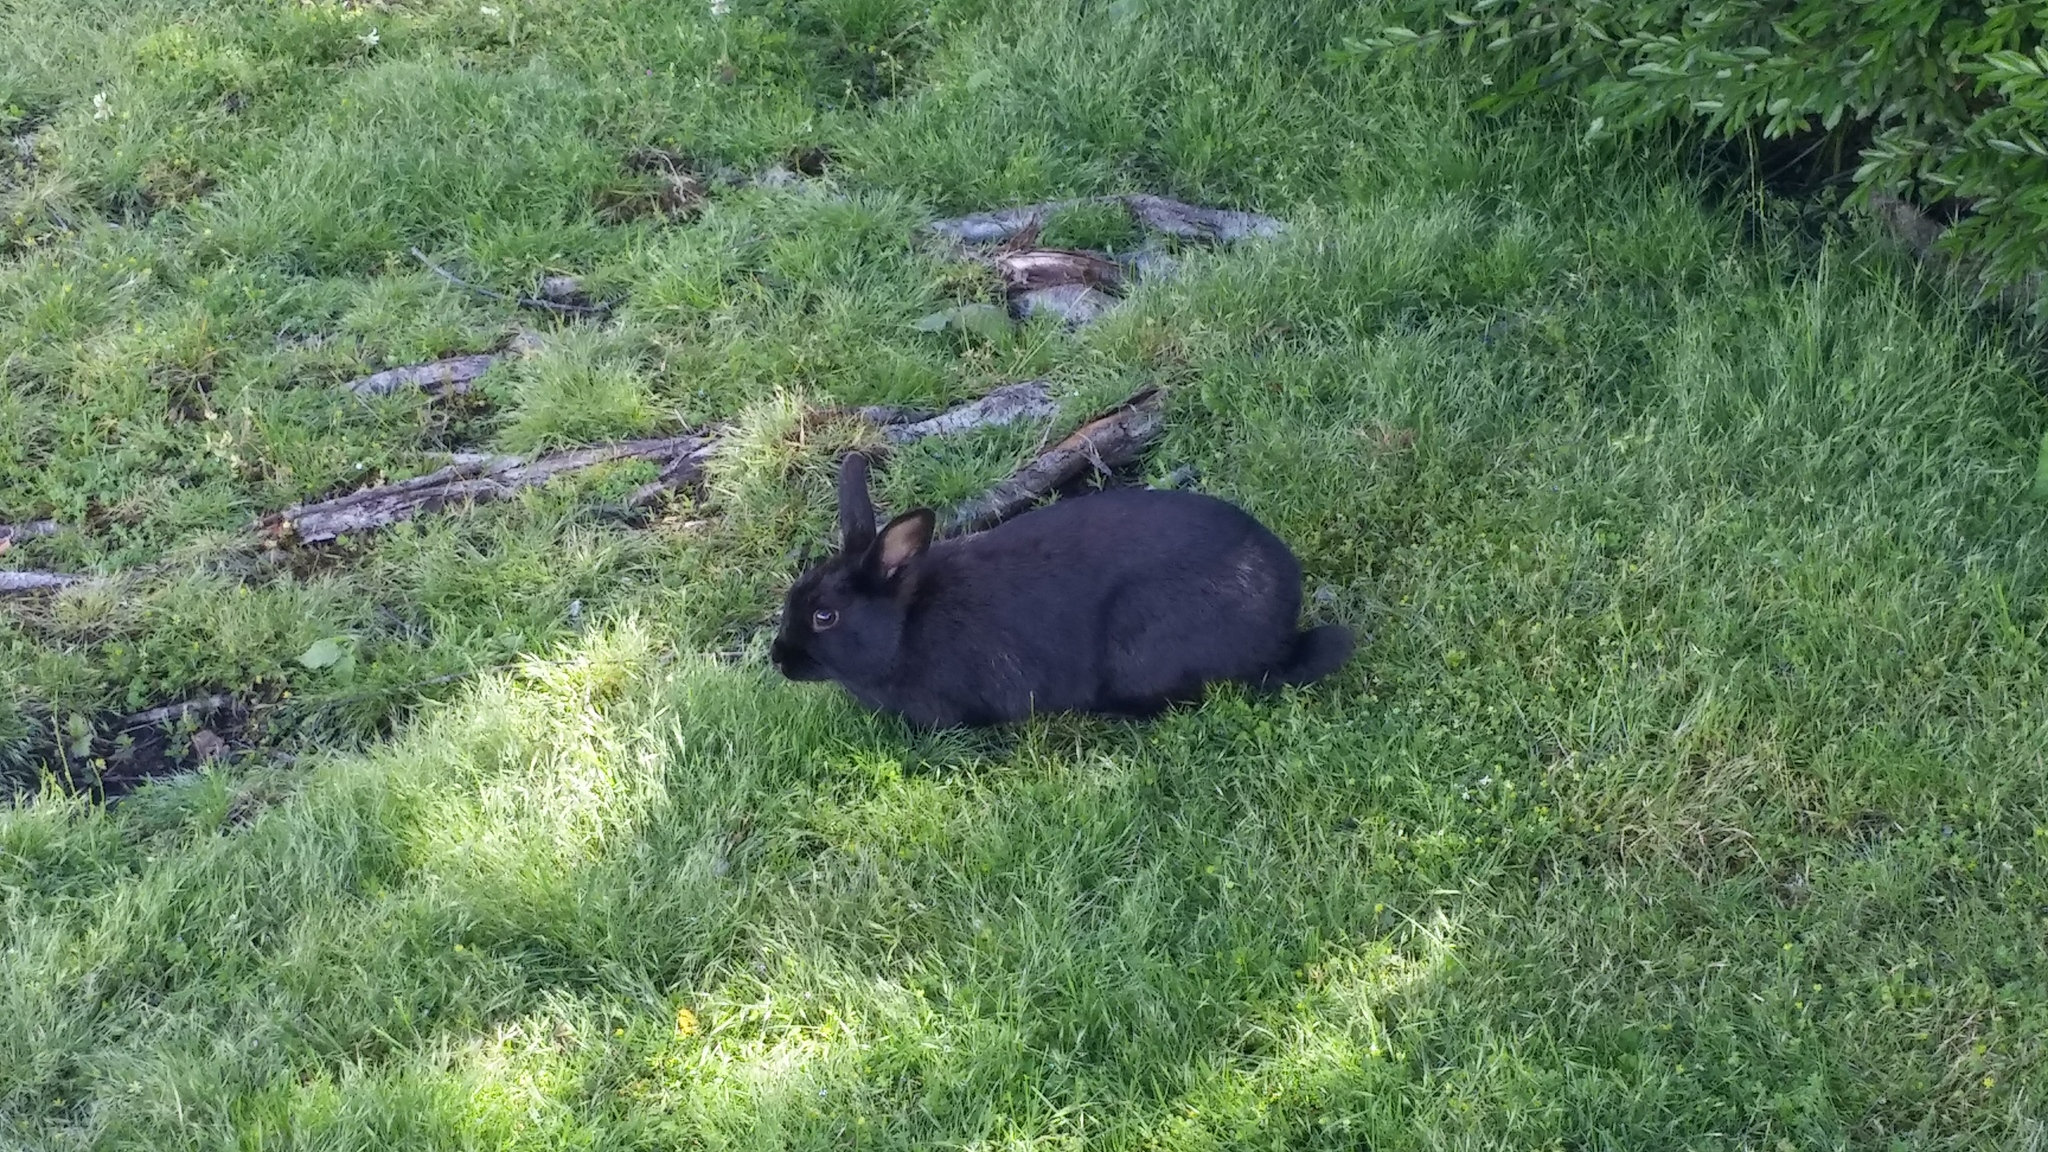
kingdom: Animalia
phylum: Chordata
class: Mammalia
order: Lagomorpha
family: Leporidae
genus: Oryctolagus
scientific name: Oryctolagus cuniculus
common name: European rabbit
